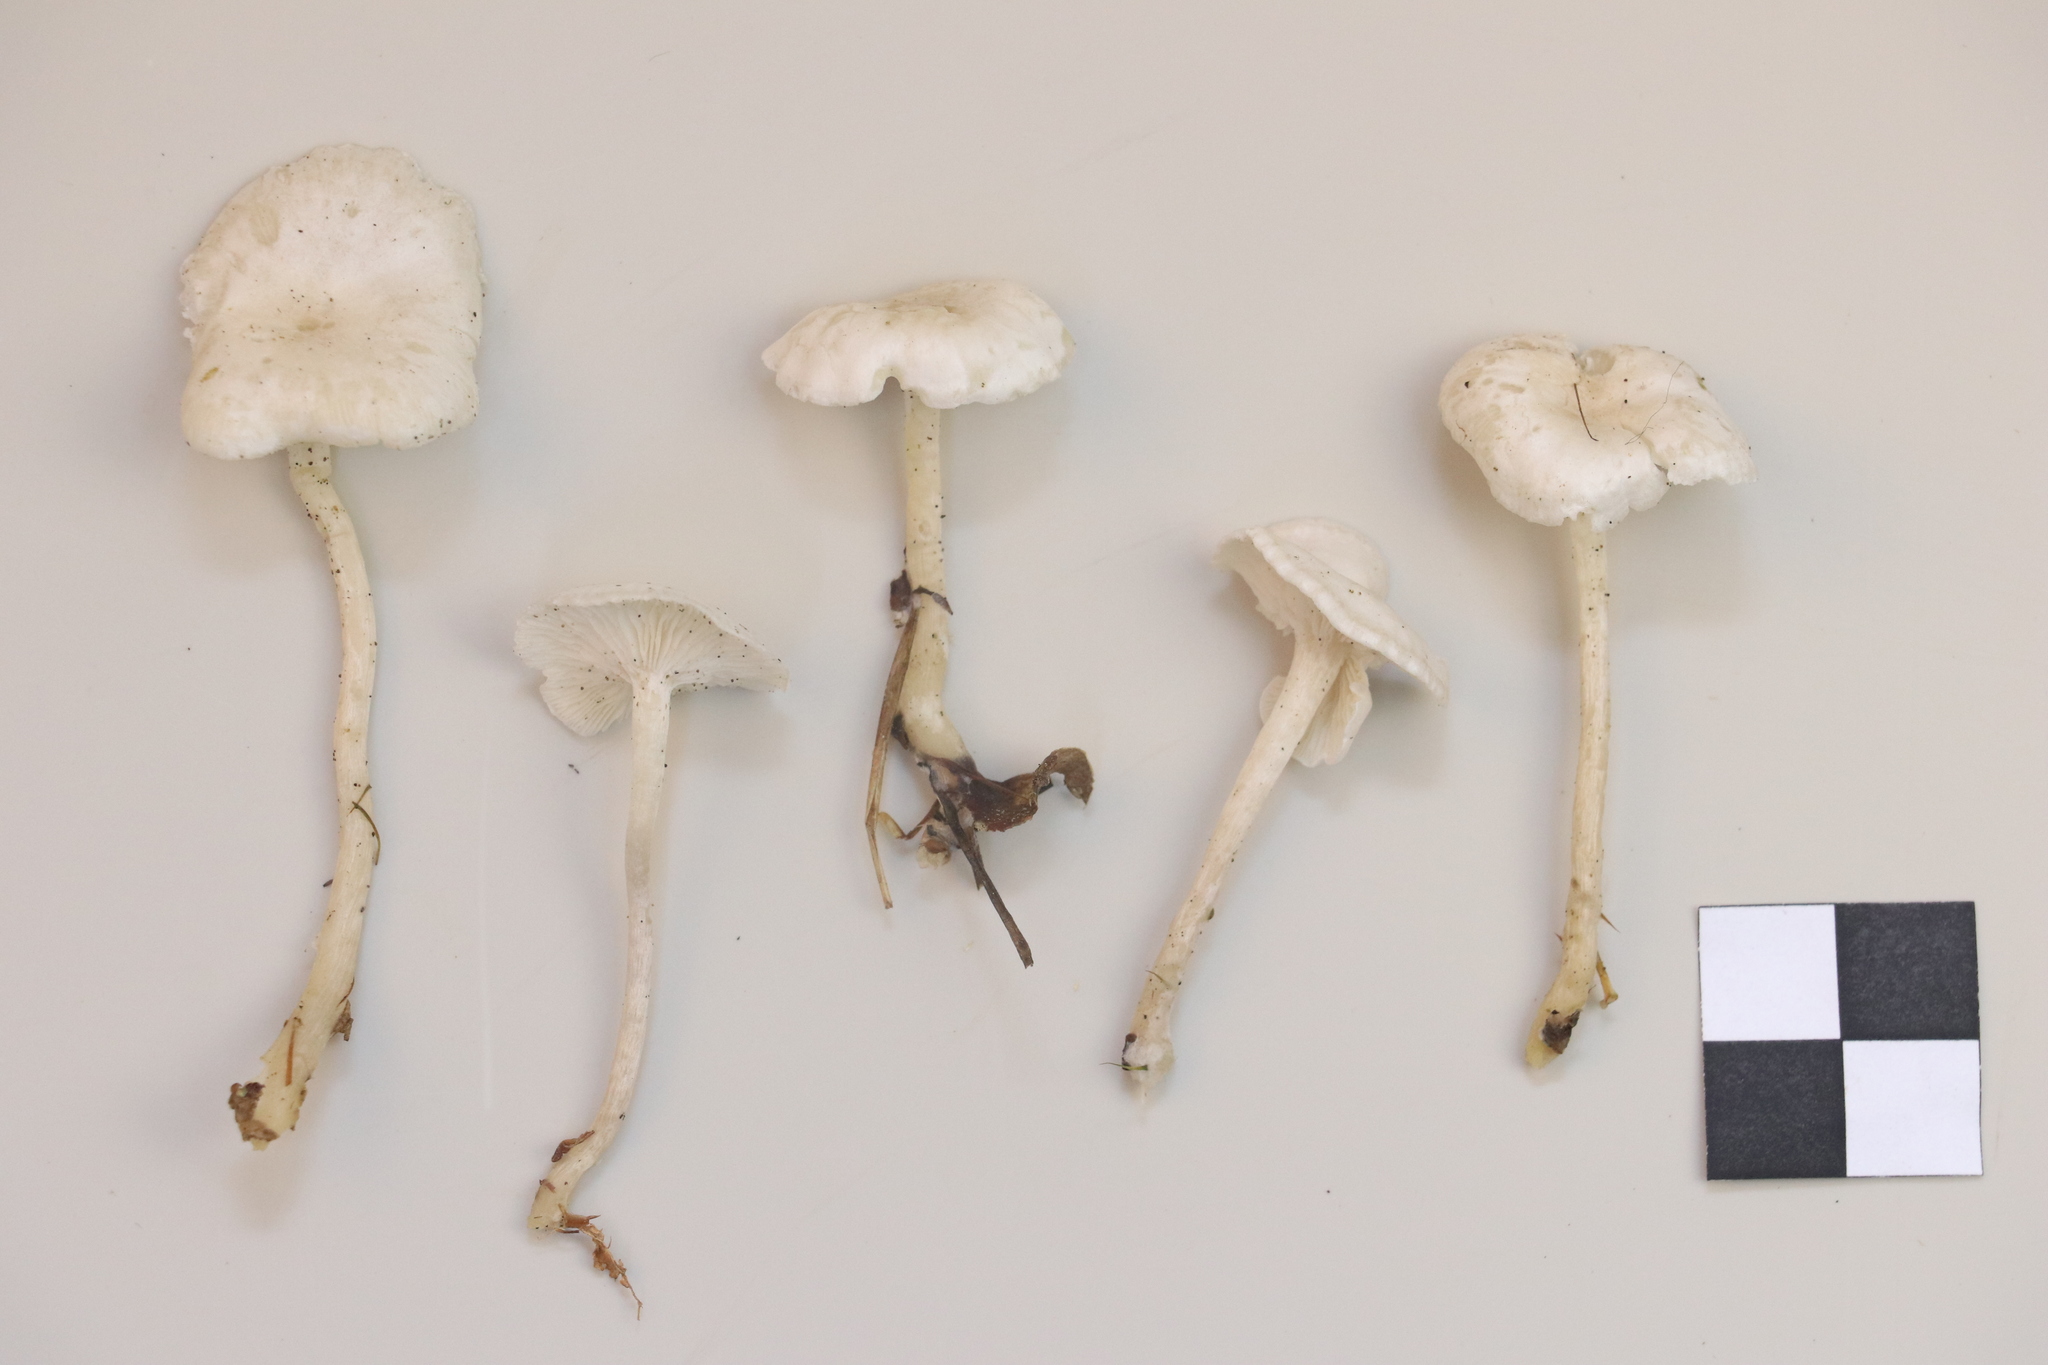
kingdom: Fungi
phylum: Basidiomycota
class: Agaricomycetes
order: Agaricales
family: Tricholomataceae
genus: Leucocybe
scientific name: Leucocybe candicans
